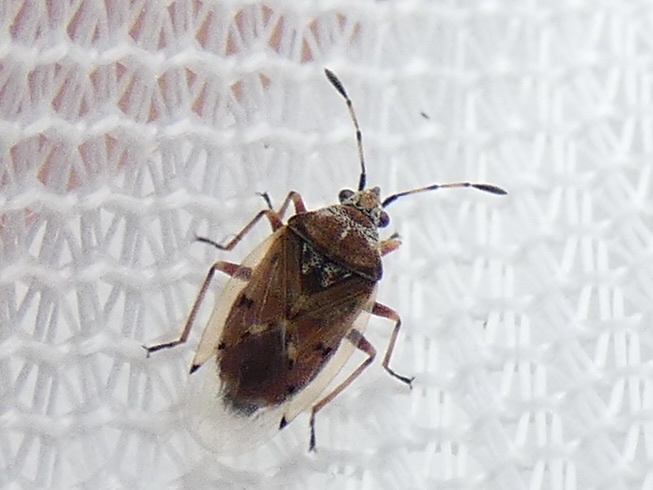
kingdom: Animalia
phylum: Arthropoda
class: Insecta
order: Hemiptera
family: Lygaeidae
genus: Kleidocerys
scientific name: Kleidocerys resedae
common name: Birch catkin bug
